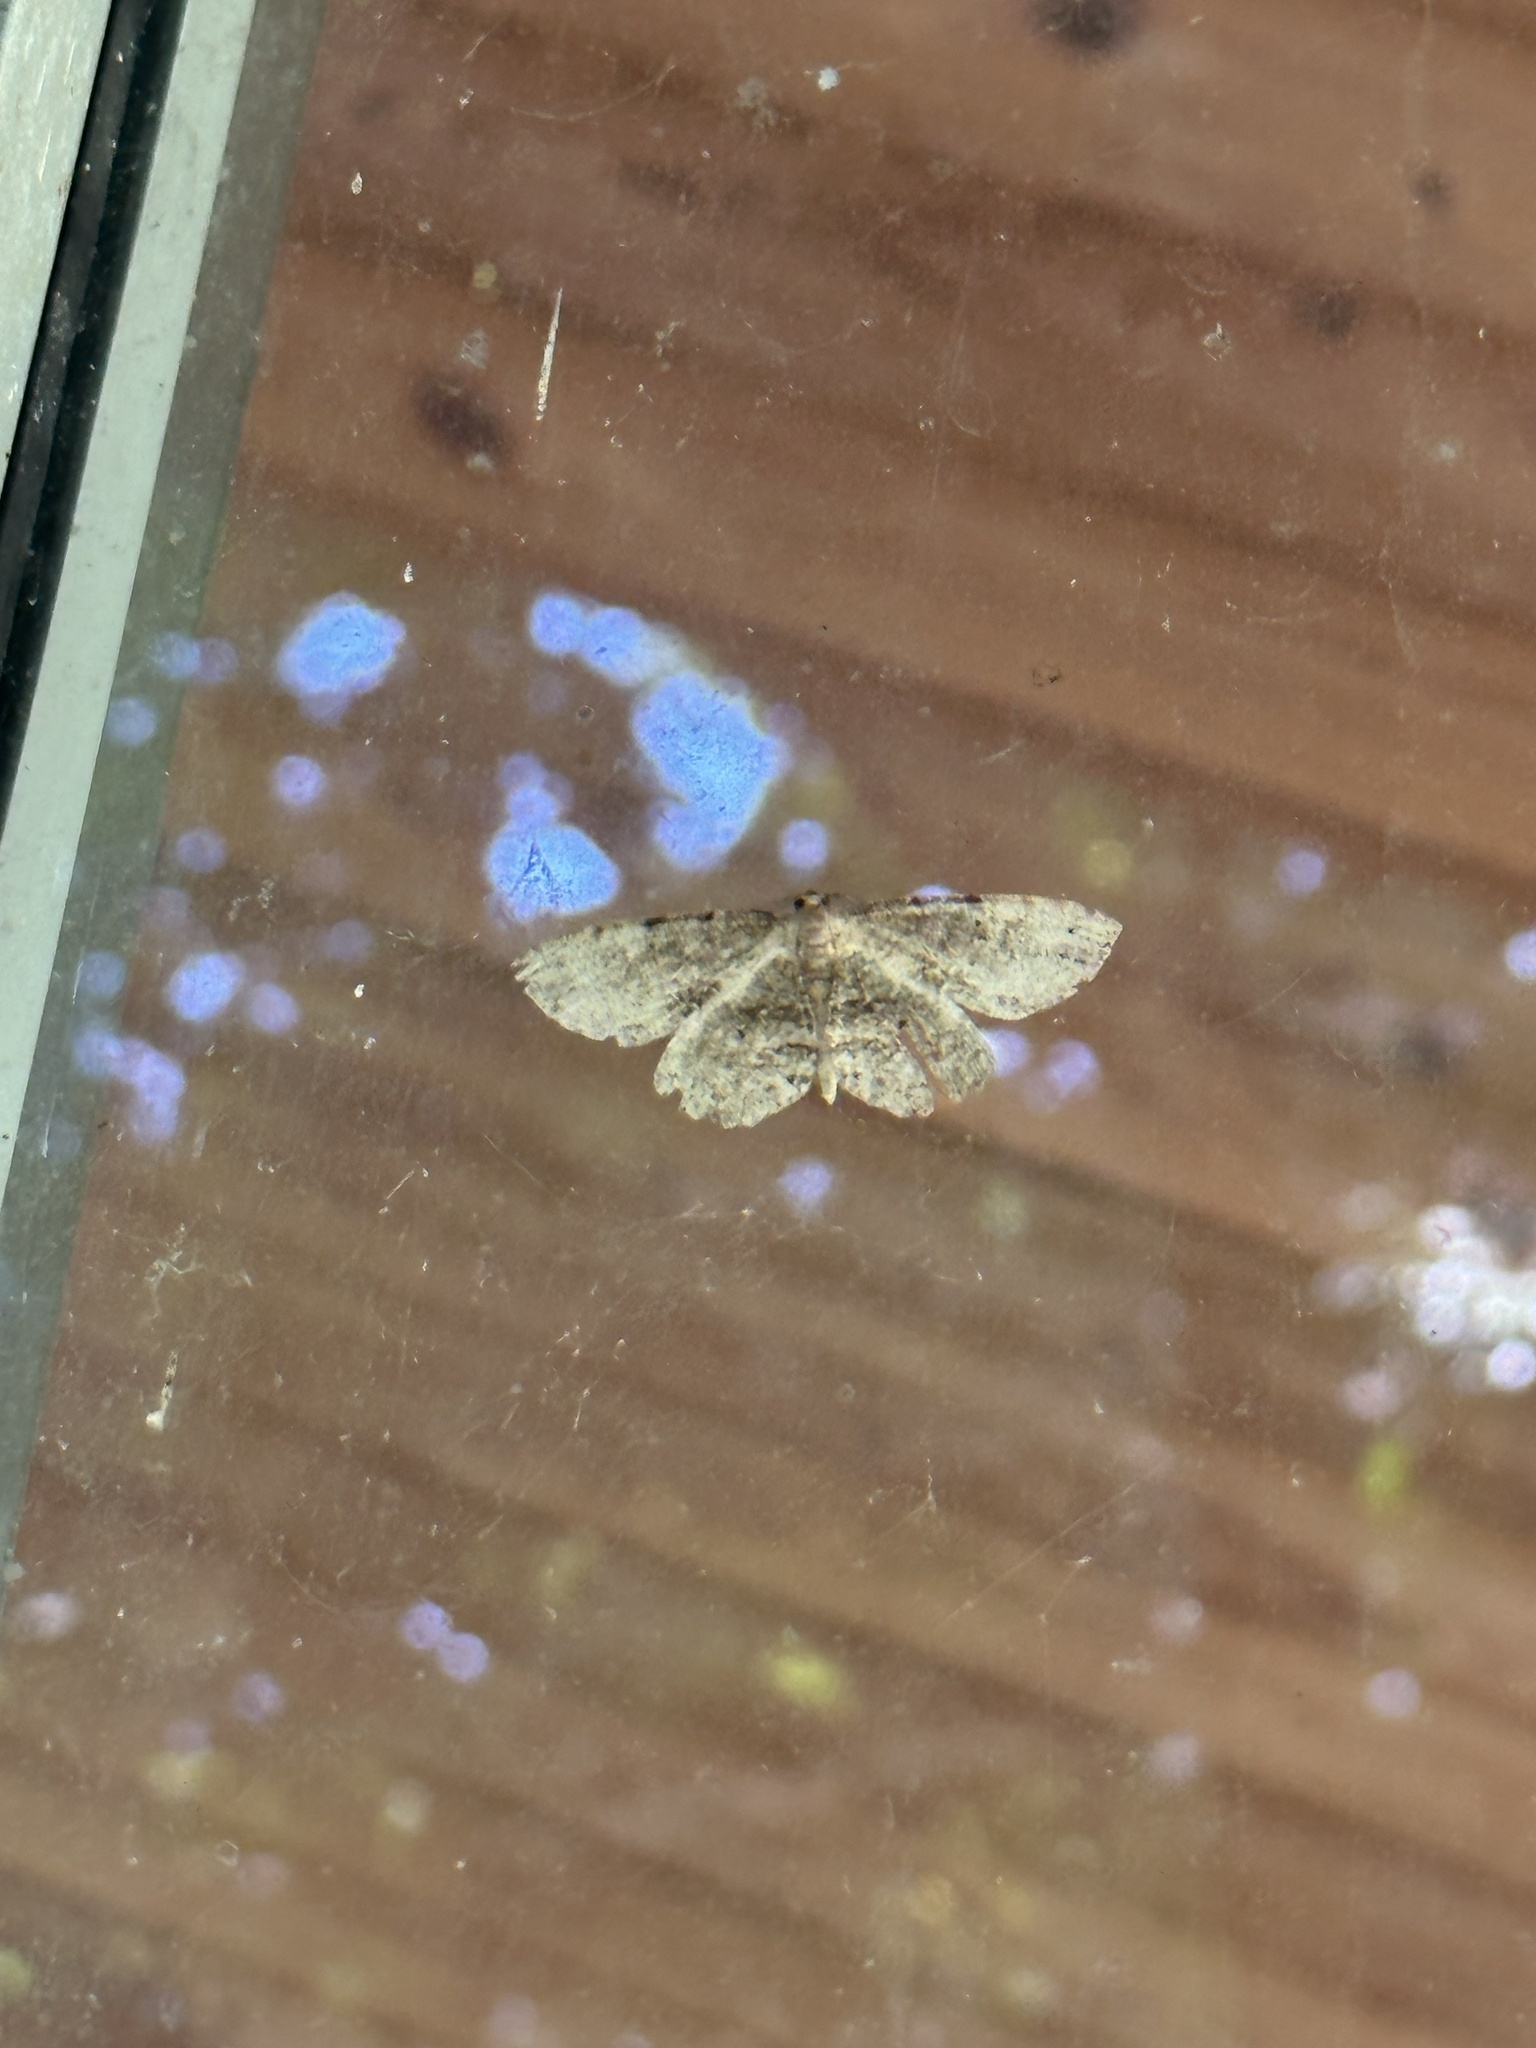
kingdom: Animalia
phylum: Arthropoda
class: Insecta
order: Lepidoptera
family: Geometridae
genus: Protoboarmia
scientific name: Protoboarmia porcelaria
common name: Porcelain gray
